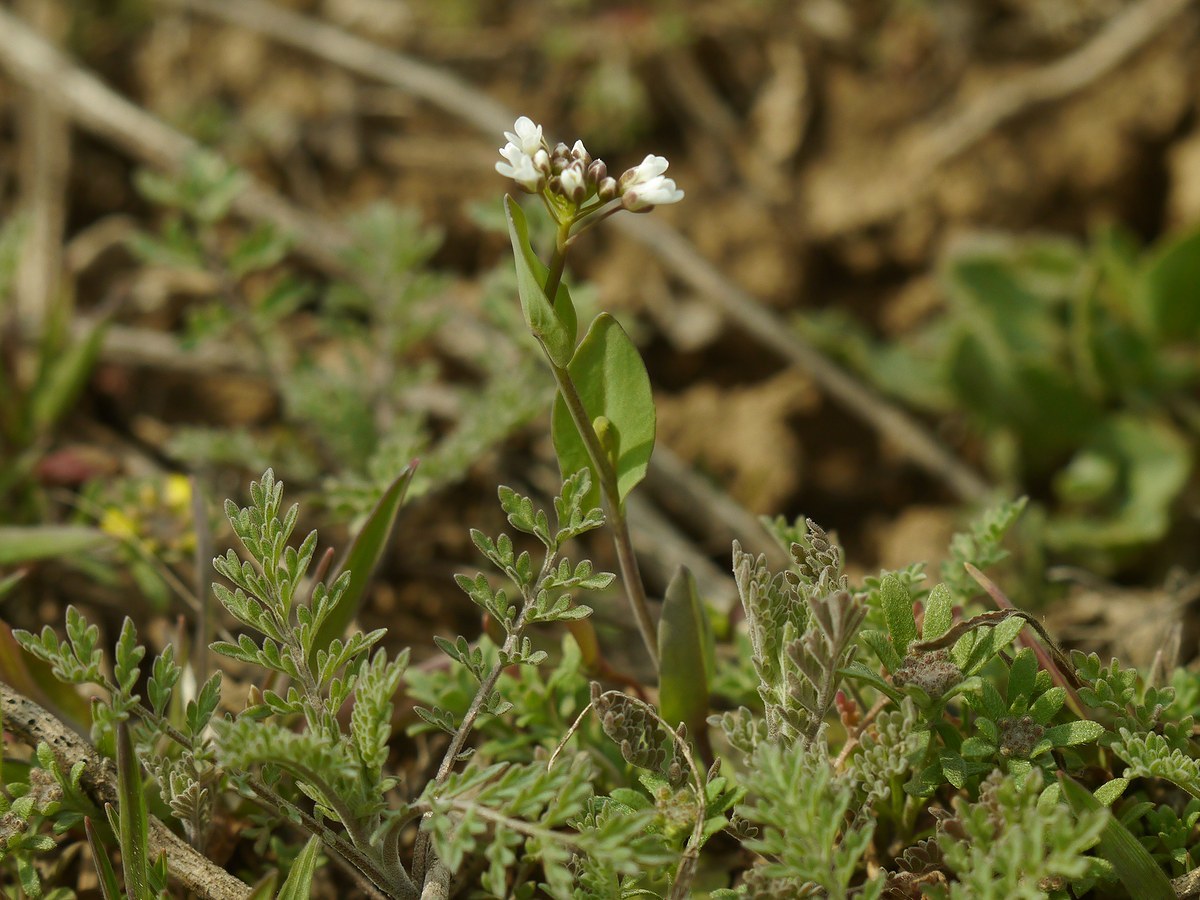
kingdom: Plantae
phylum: Tracheophyta
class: Magnoliopsida
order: Brassicales
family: Brassicaceae
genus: Noccaea
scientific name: Noccaea perfoliata
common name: Perfoliate pennycress
